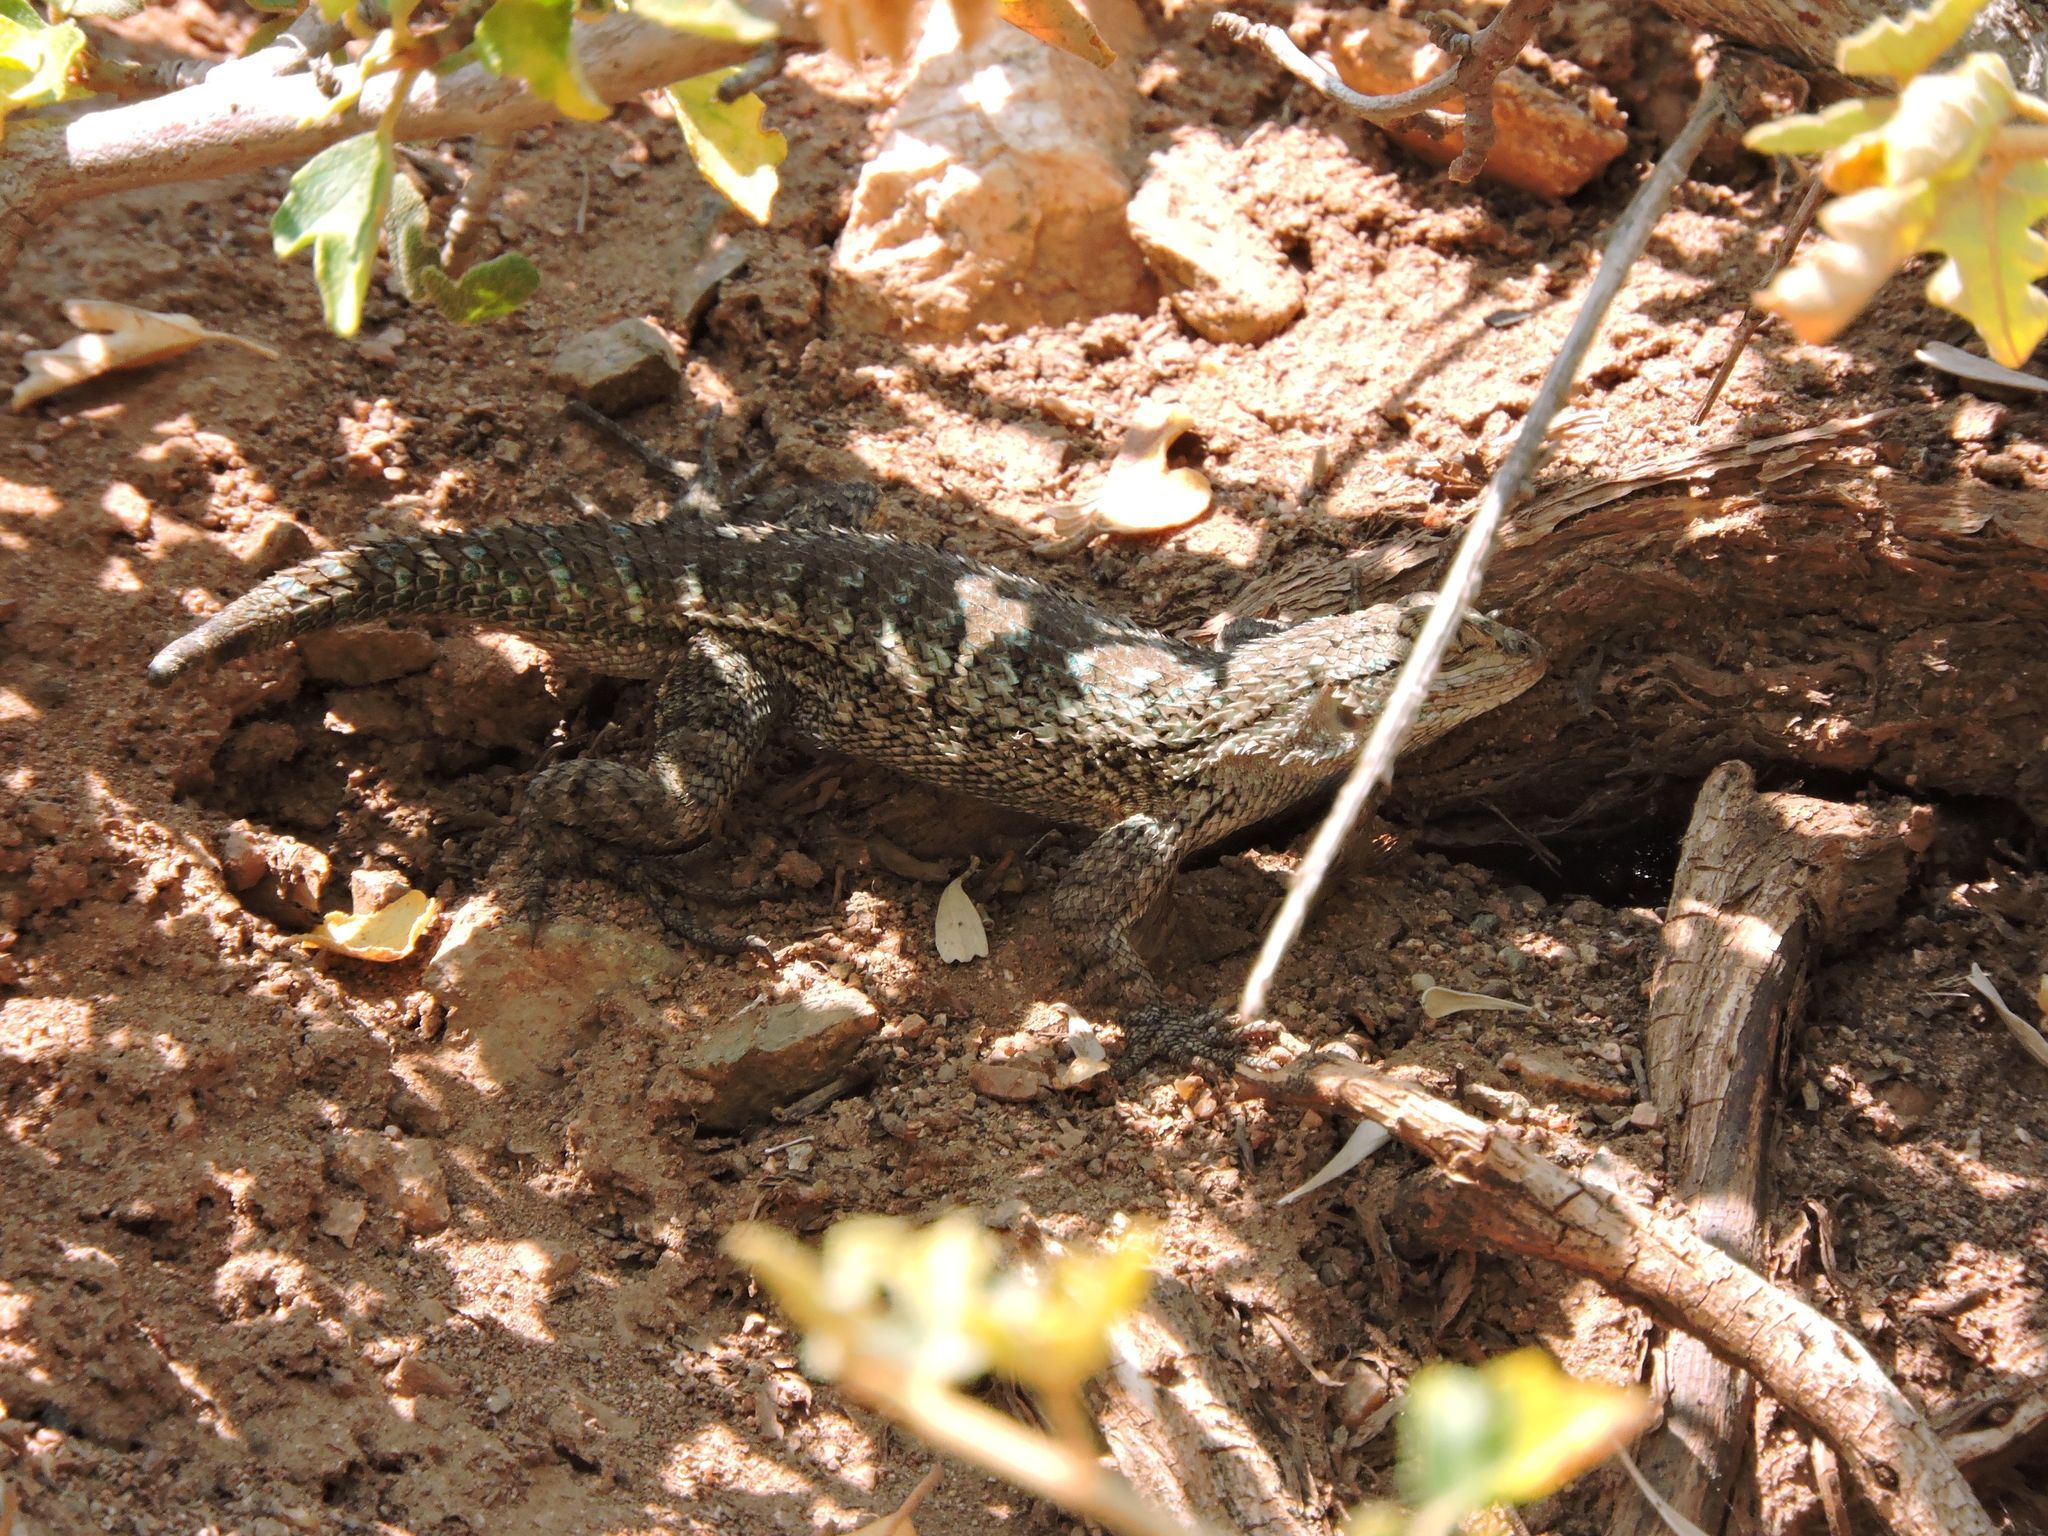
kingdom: Animalia
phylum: Chordata
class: Squamata
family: Phrynosomatidae
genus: Sceloporus
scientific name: Sceloporus occidentalis
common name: Western fence lizard
